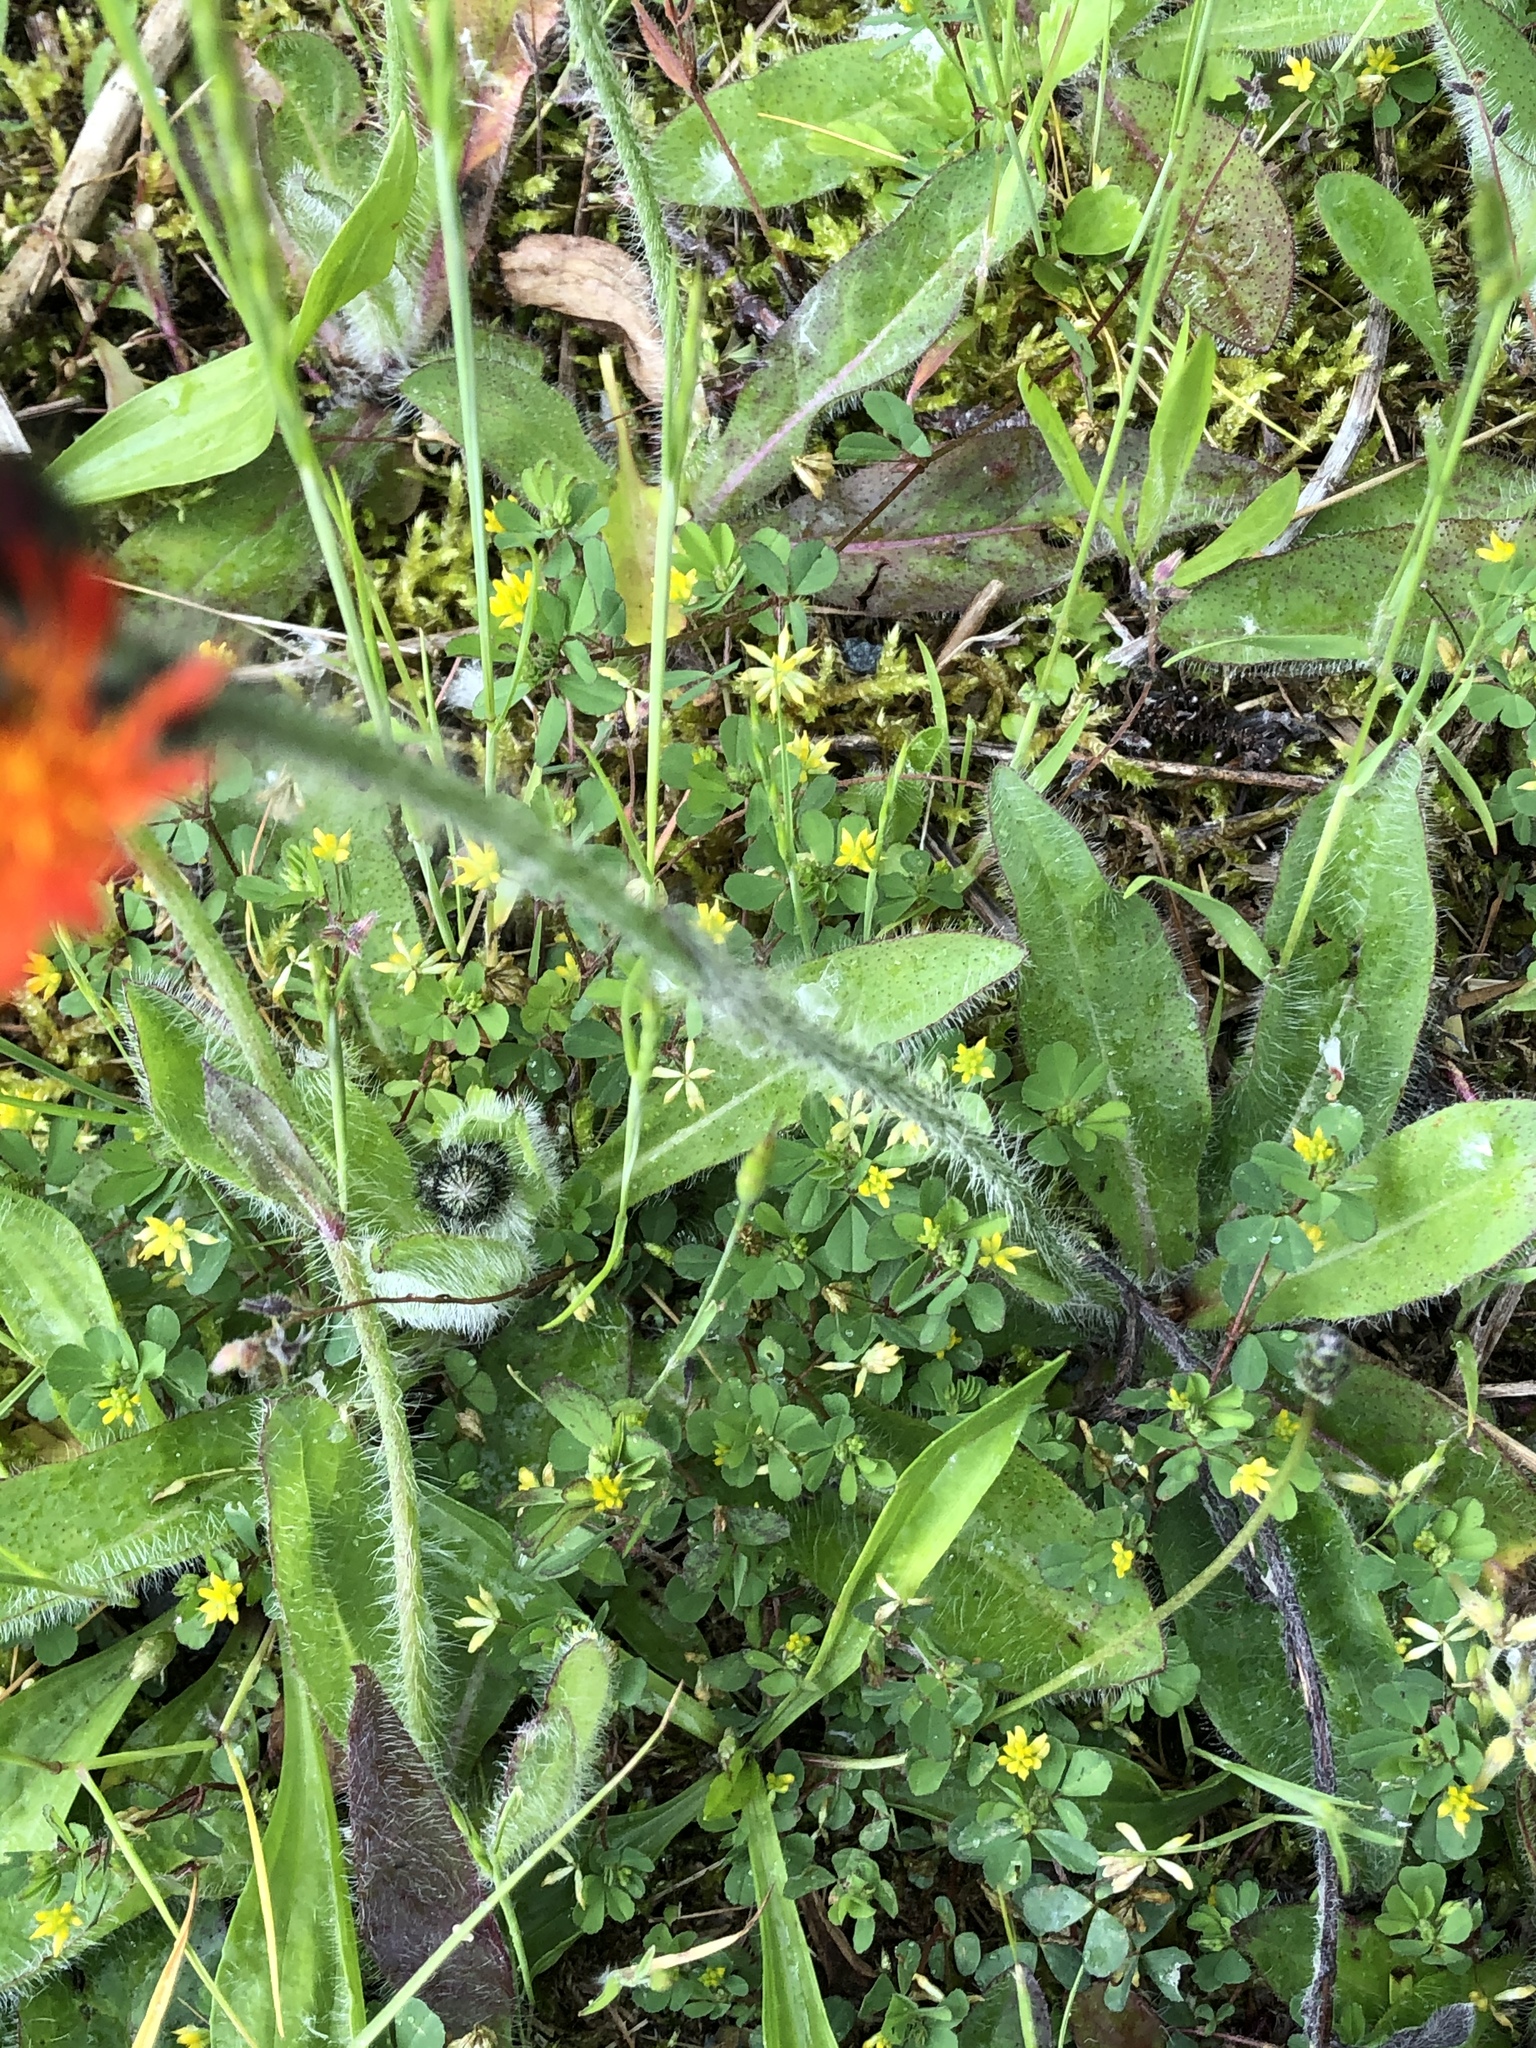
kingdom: Plantae
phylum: Tracheophyta
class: Magnoliopsida
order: Asterales
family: Asteraceae
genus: Pilosella
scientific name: Pilosella aurantiaca
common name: Fox-and-cubs
